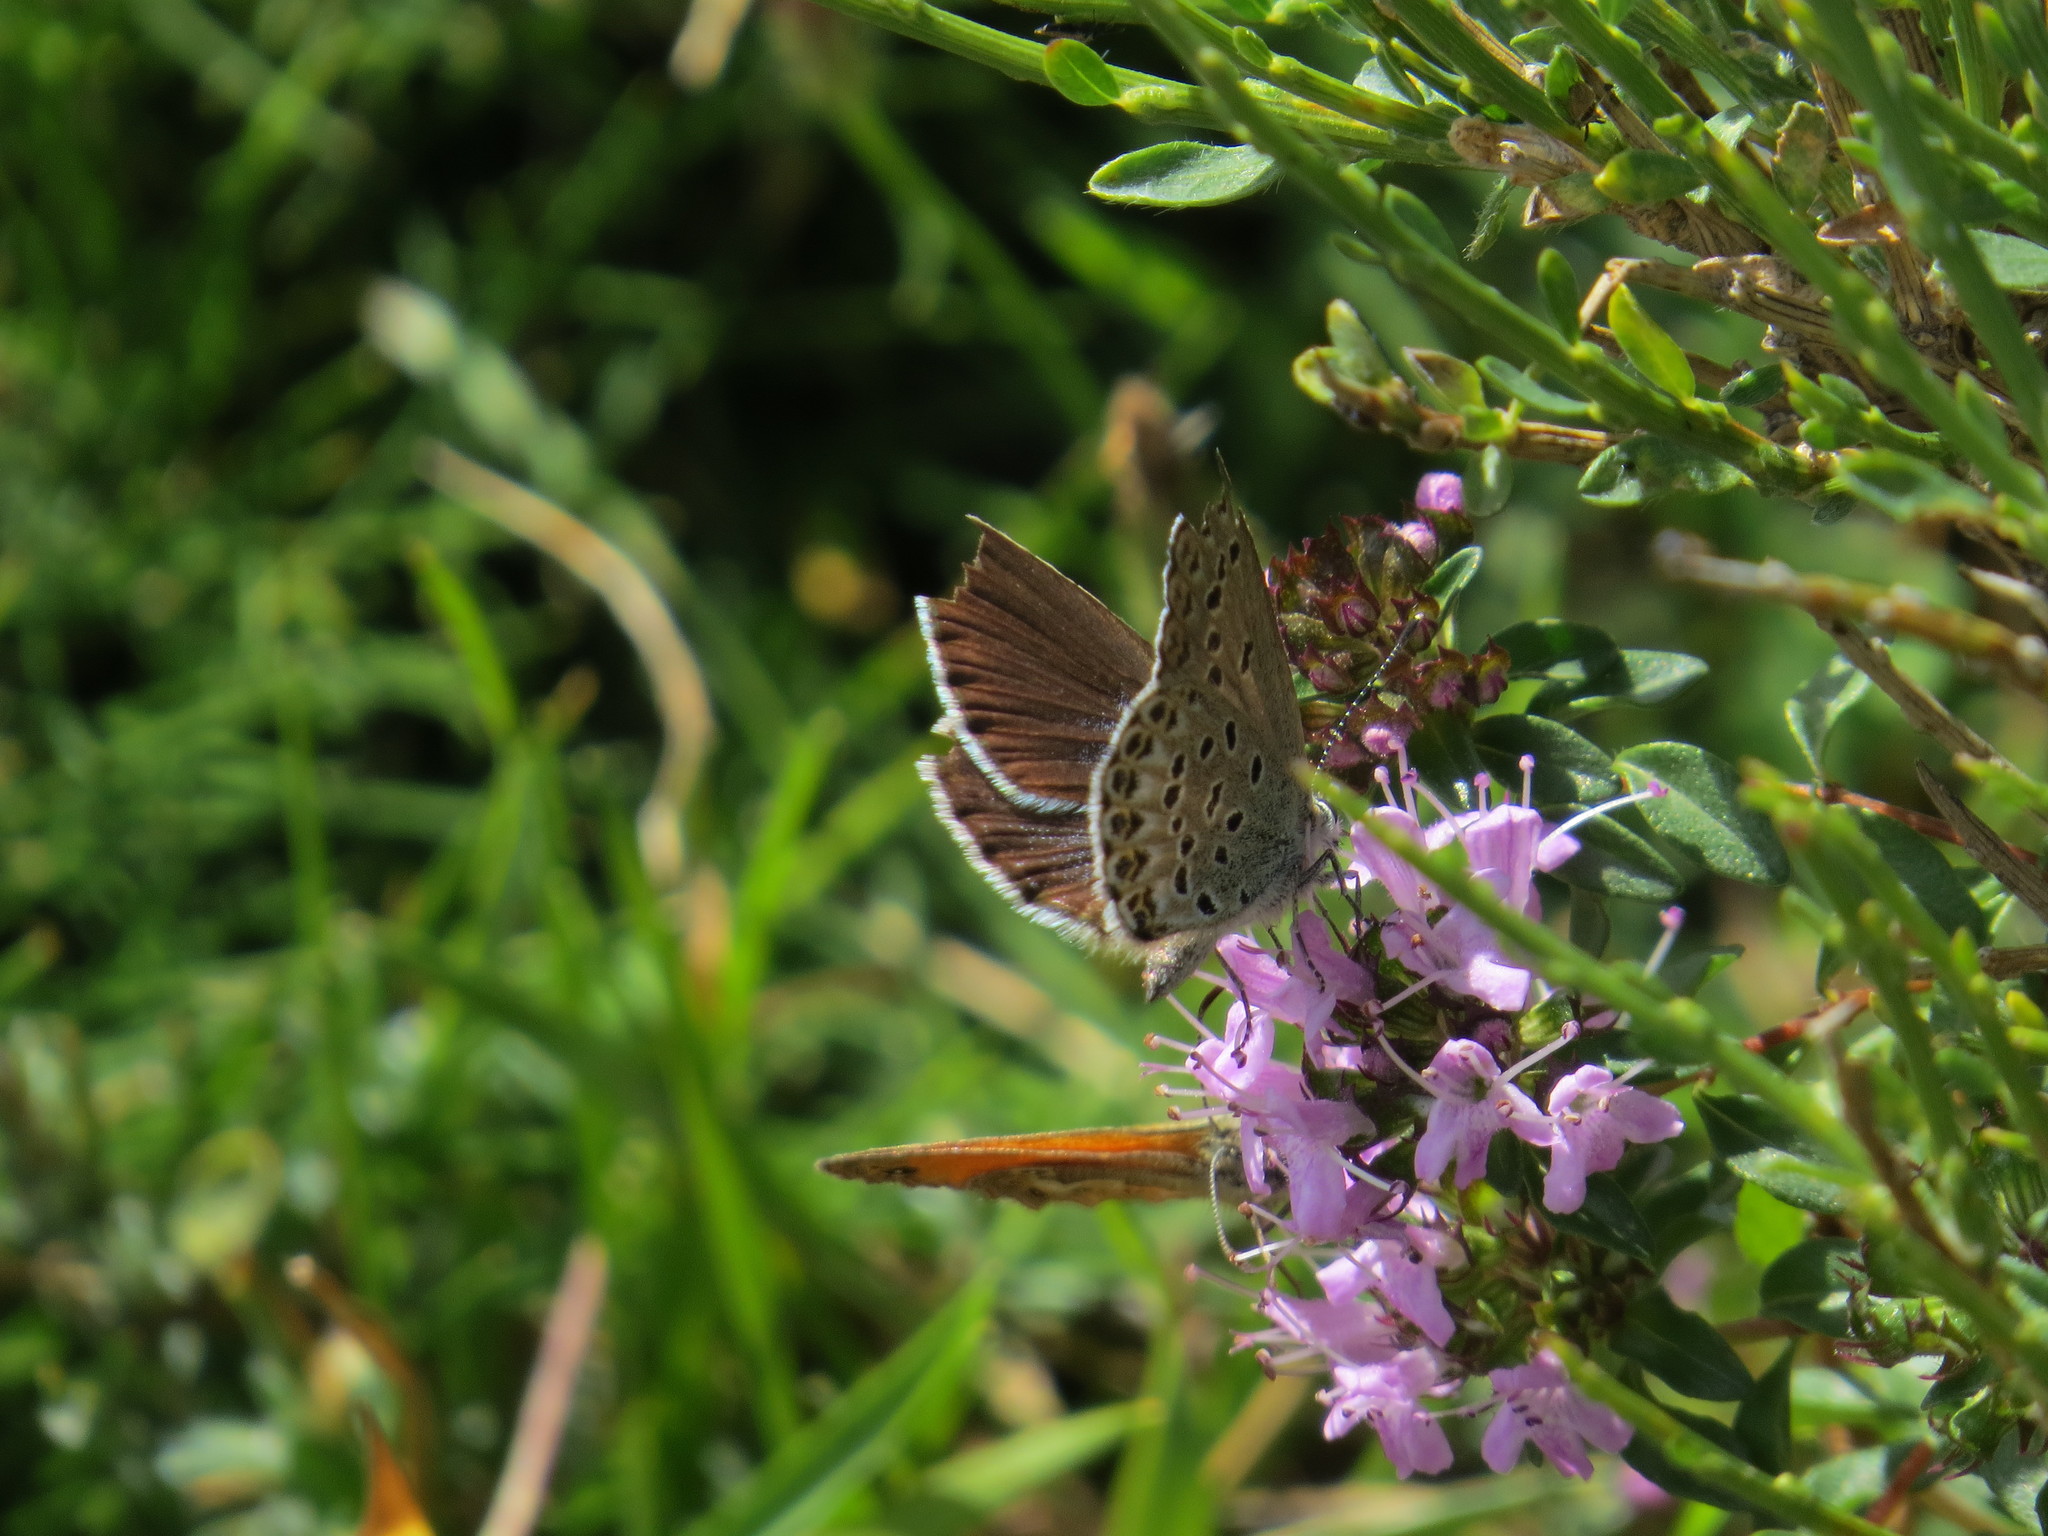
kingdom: Animalia
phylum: Arthropoda
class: Insecta
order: Lepidoptera
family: Lycaenidae
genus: Lycaeides
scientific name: Lycaeides idas
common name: Northern blue
